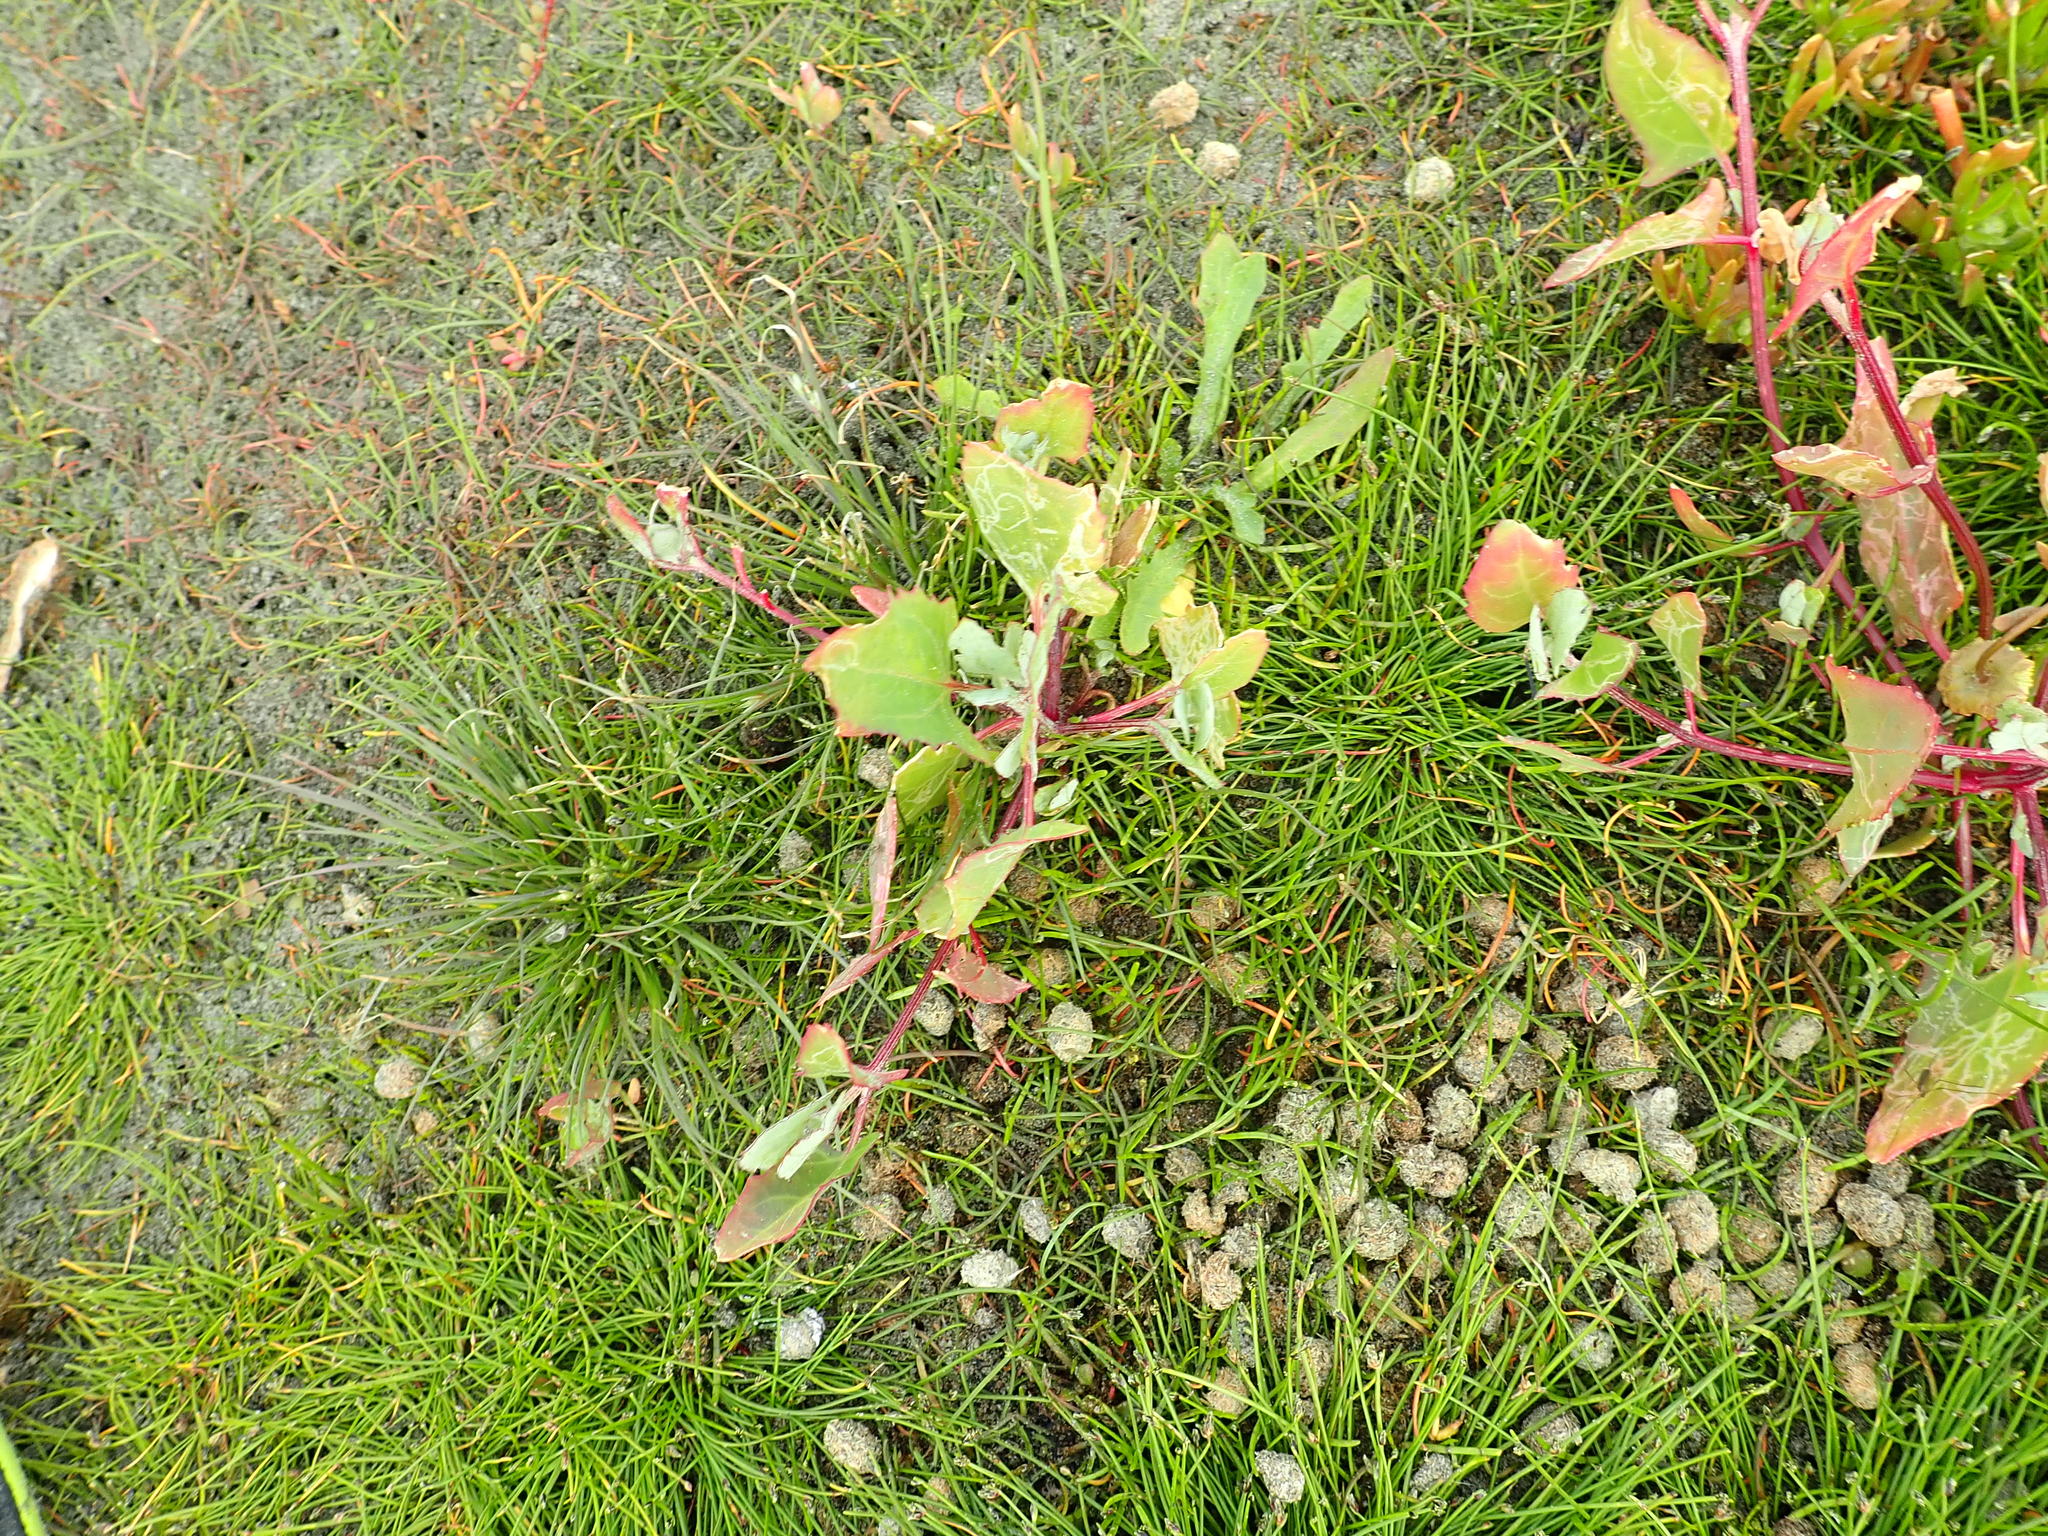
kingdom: Plantae
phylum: Tracheophyta
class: Magnoliopsida
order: Caryophyllales
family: Amaranthaceae
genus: Atriplex
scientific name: Atriplex prostrata
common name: Spear-leaved orache
